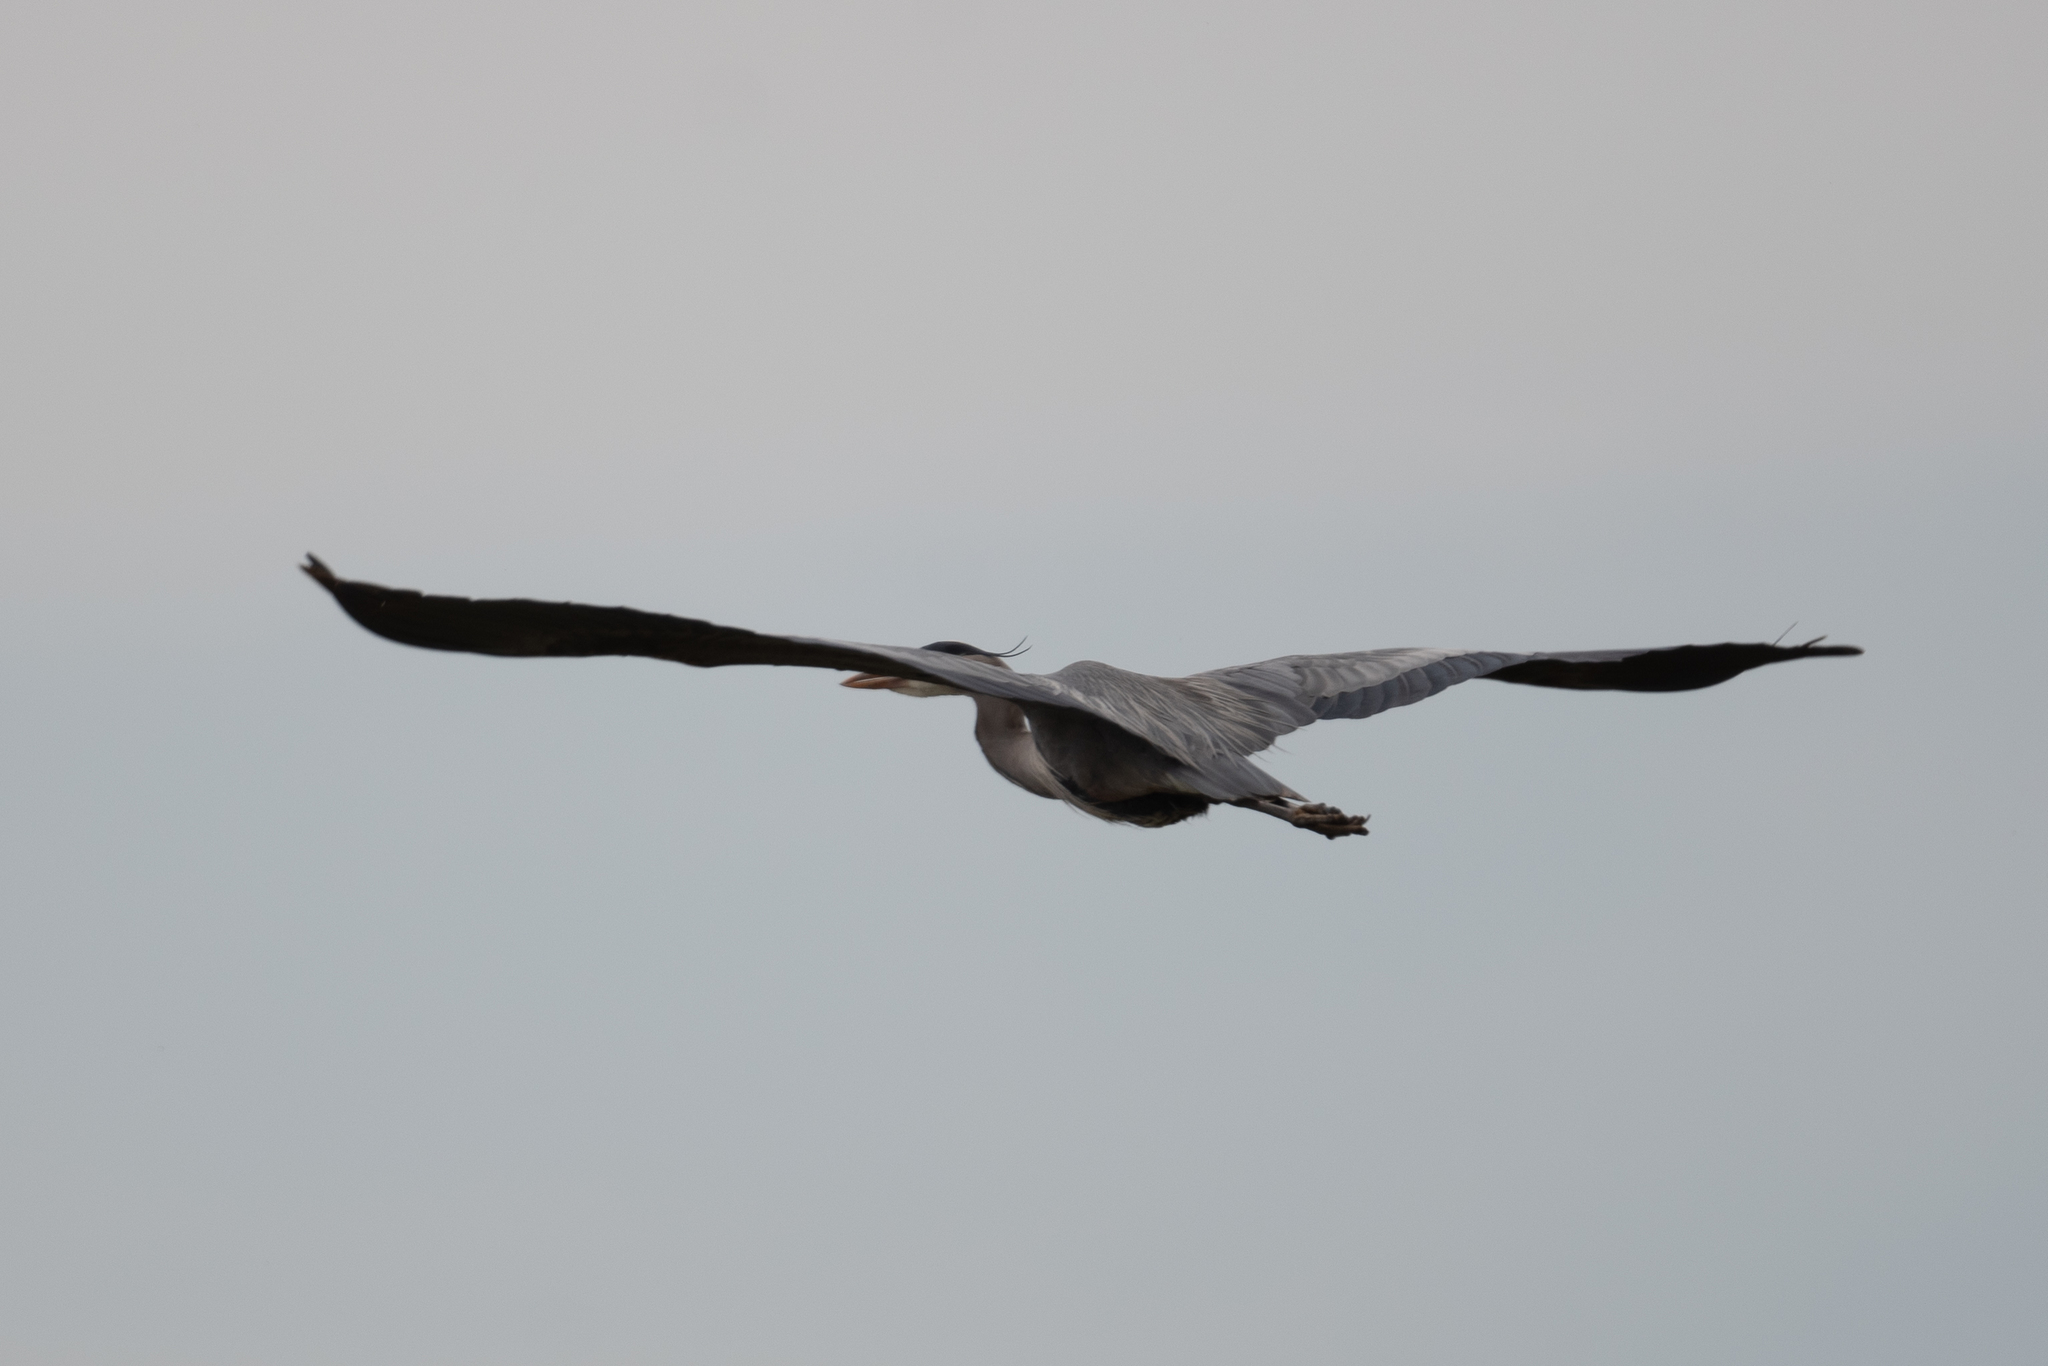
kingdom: Animalia
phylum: Chordata
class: Aves
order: Pelecaniformes
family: Ardeidae
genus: Ardea
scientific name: Ardea herodias
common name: Great blue heron
